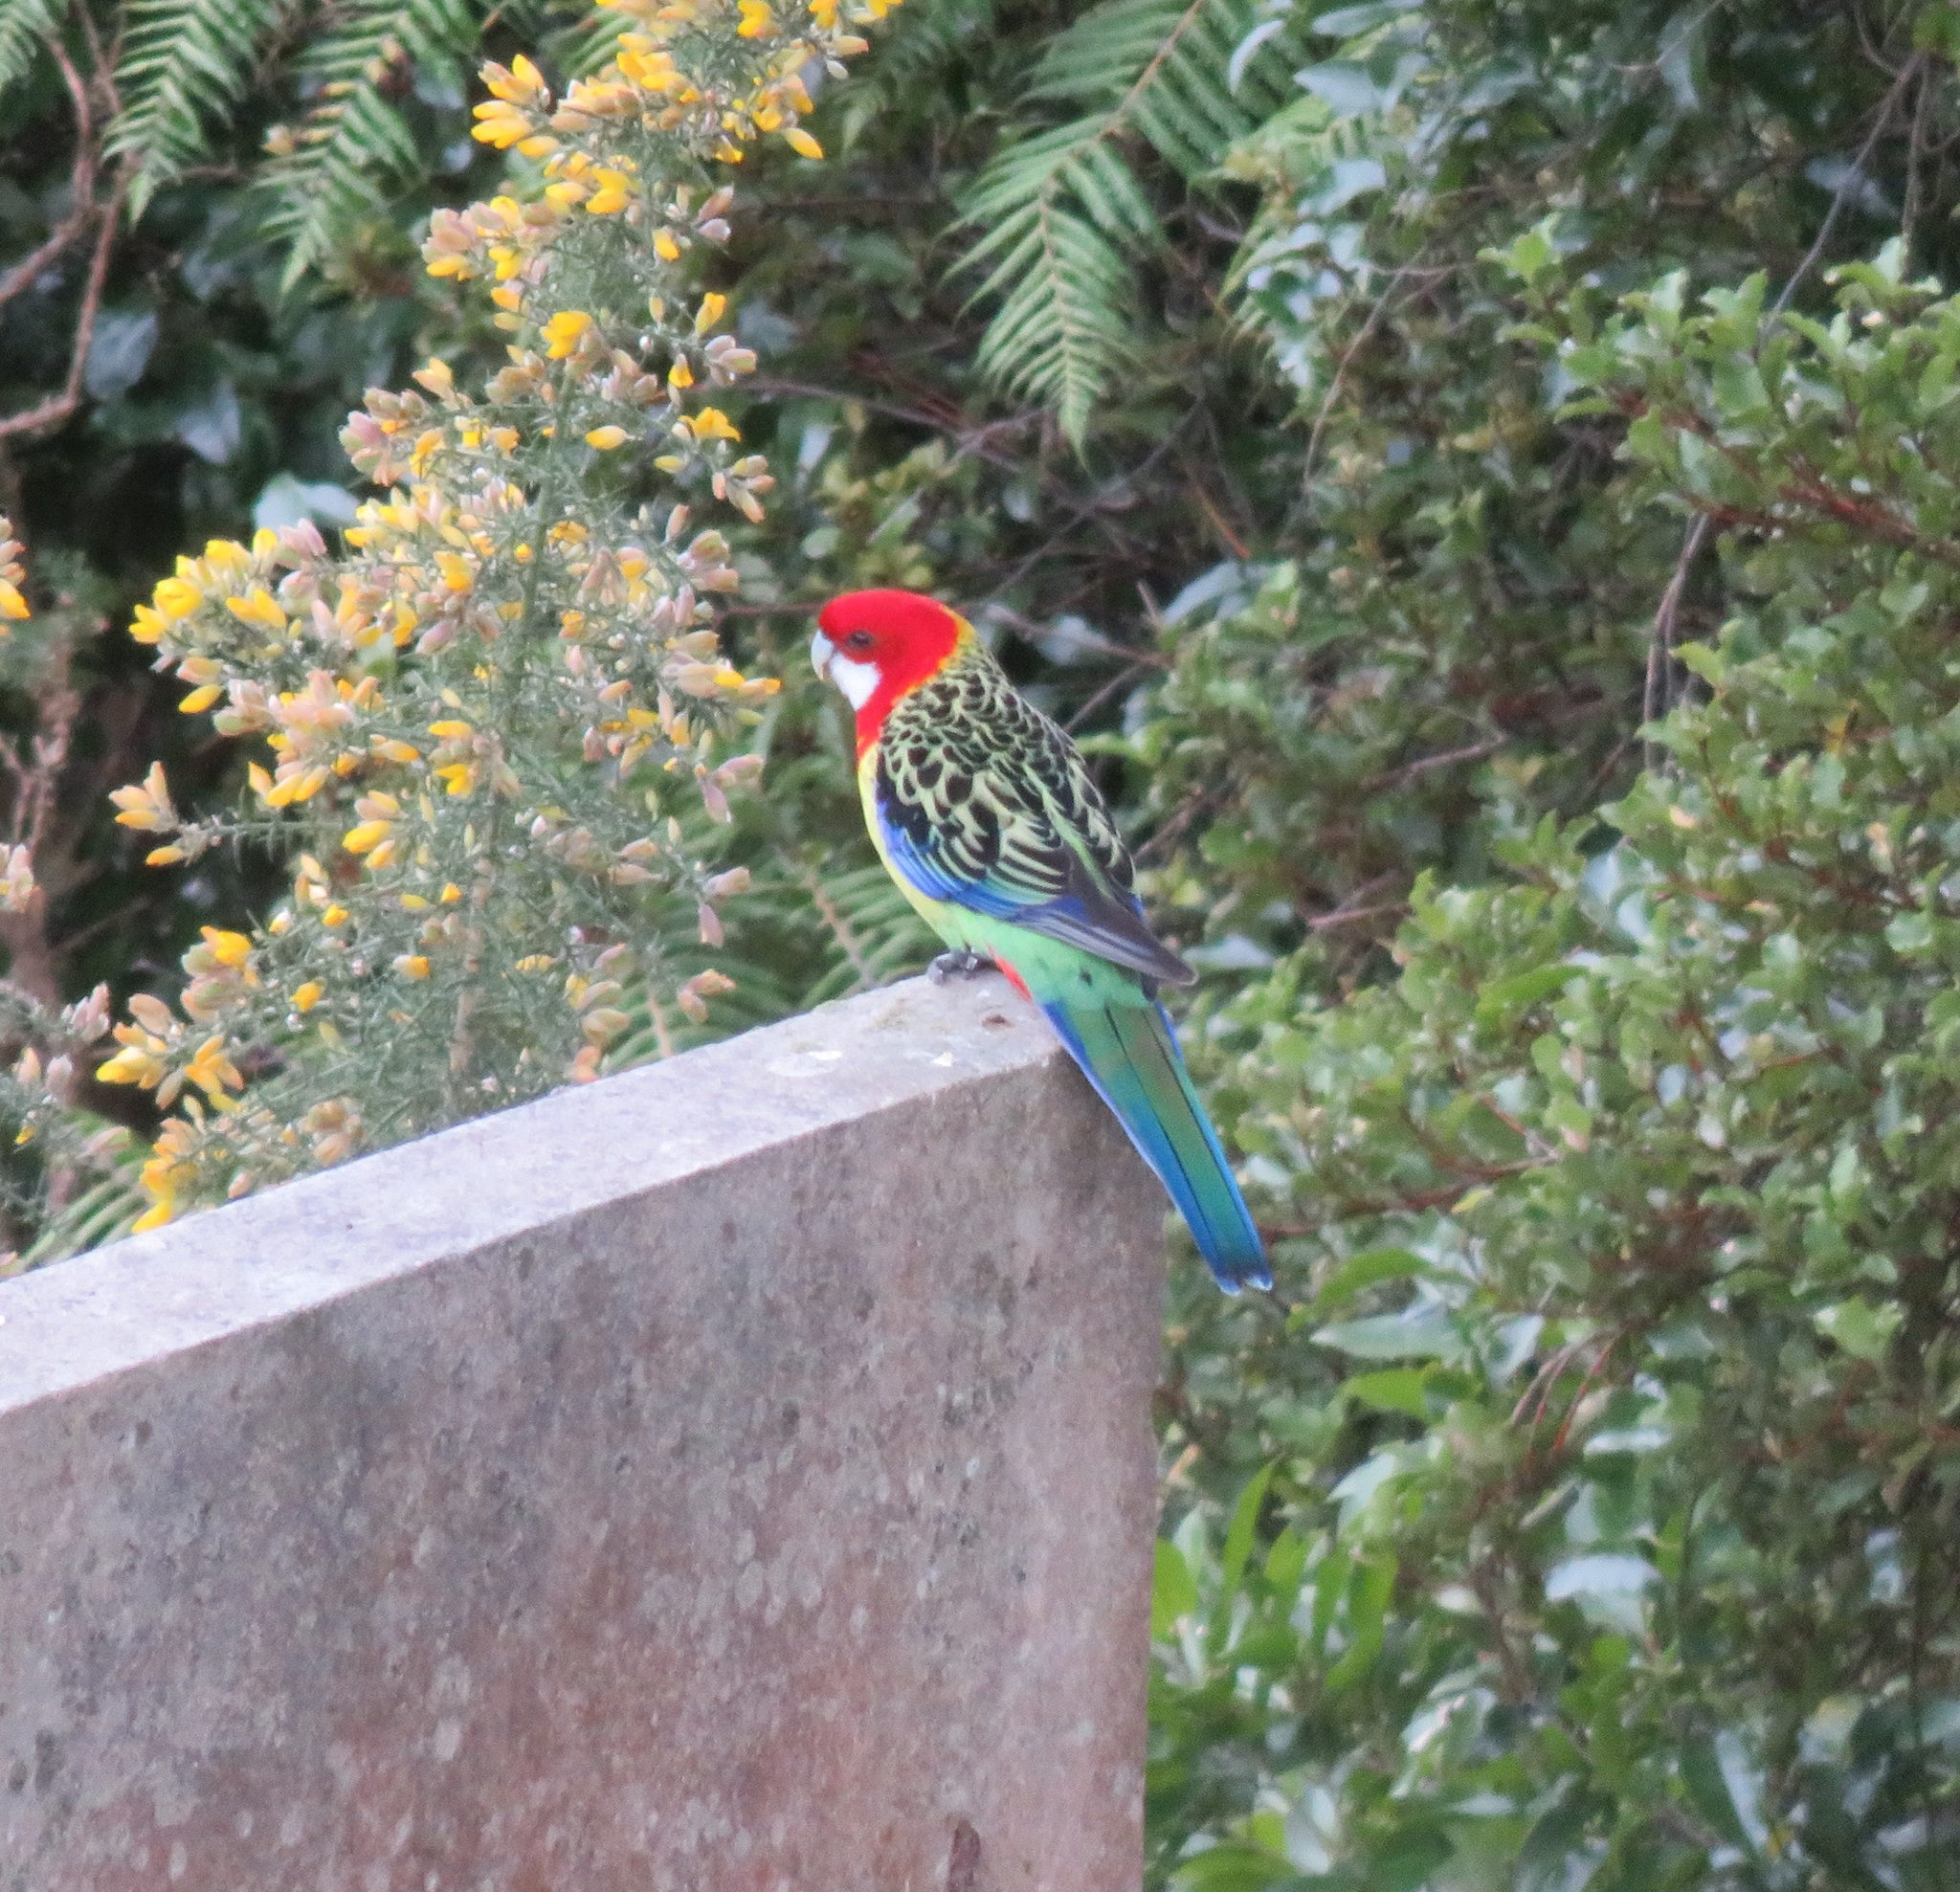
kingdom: Animalia
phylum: Chordata
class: Aves
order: Psittaciformes
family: Psittacidae
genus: Platycercus
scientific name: Platycercus eximius
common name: Eastern rosella
